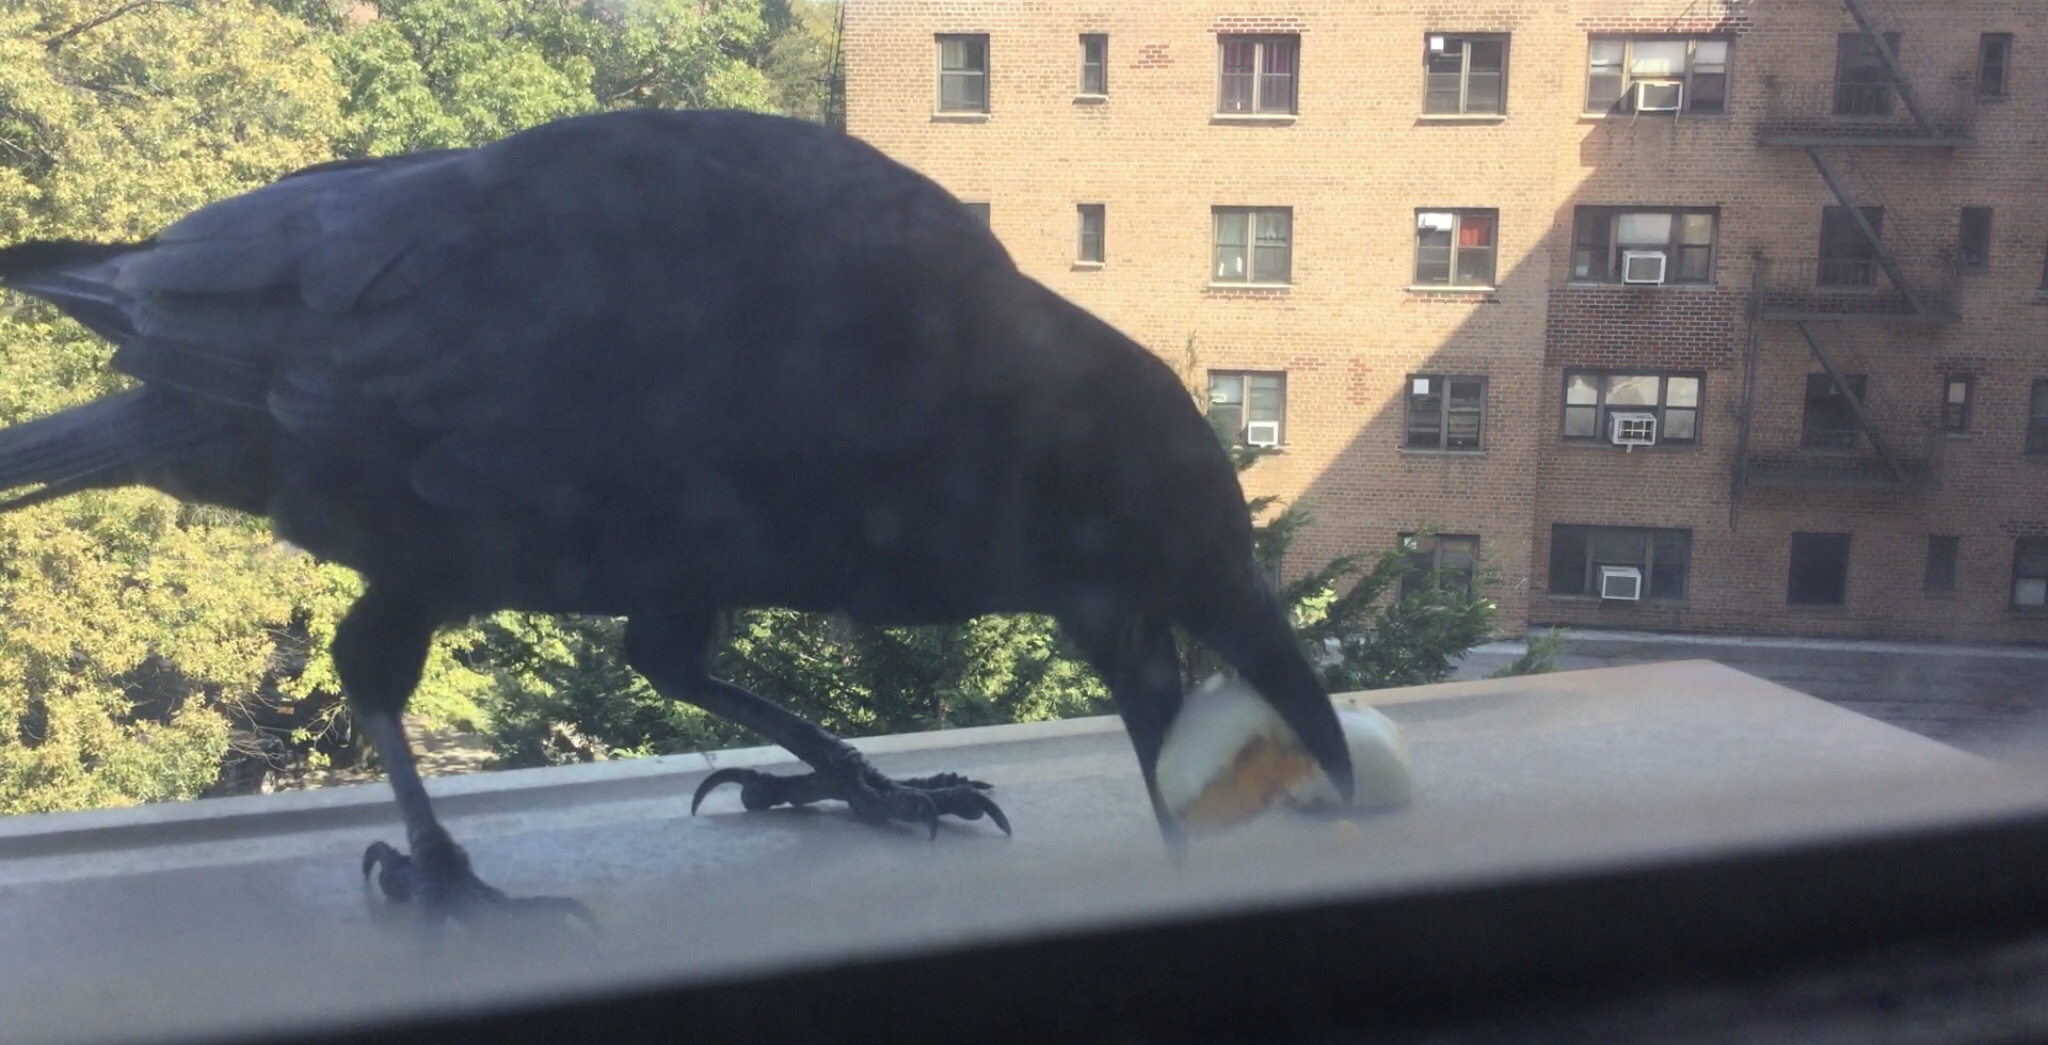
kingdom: Animalia
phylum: Chordata
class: Aves
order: Passeriformes
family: Corvidae
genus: Corvus
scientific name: Corvus brachyrhynchos
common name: American crow
